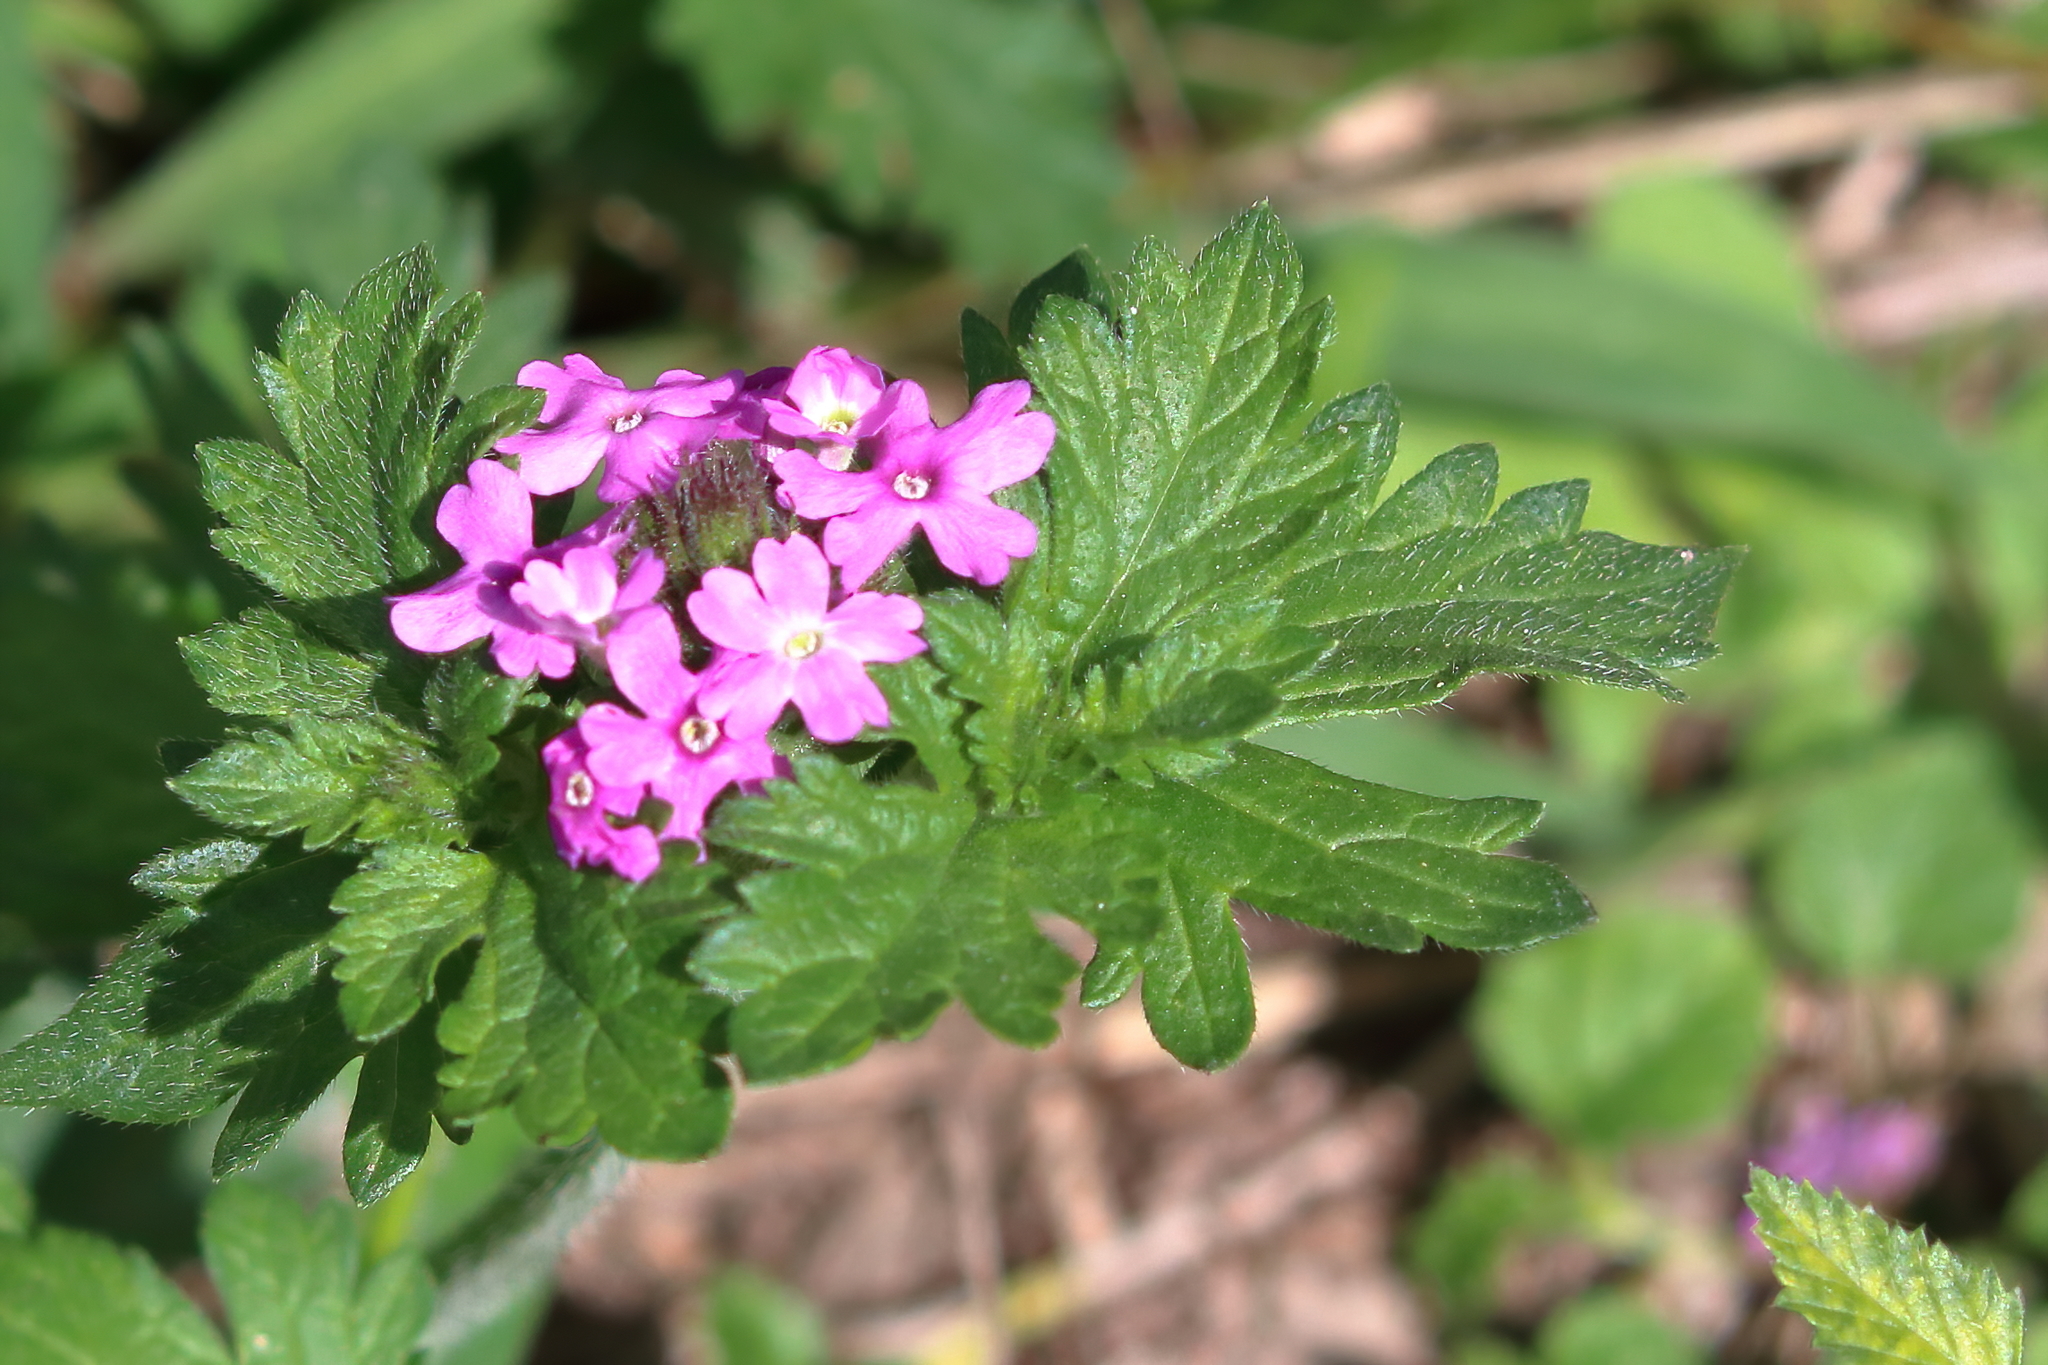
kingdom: Plantae
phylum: Tracheophyta
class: Magnoliopsida
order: Lamiales
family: Verbenaceae
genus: Verbena
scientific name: Verbena pumila
